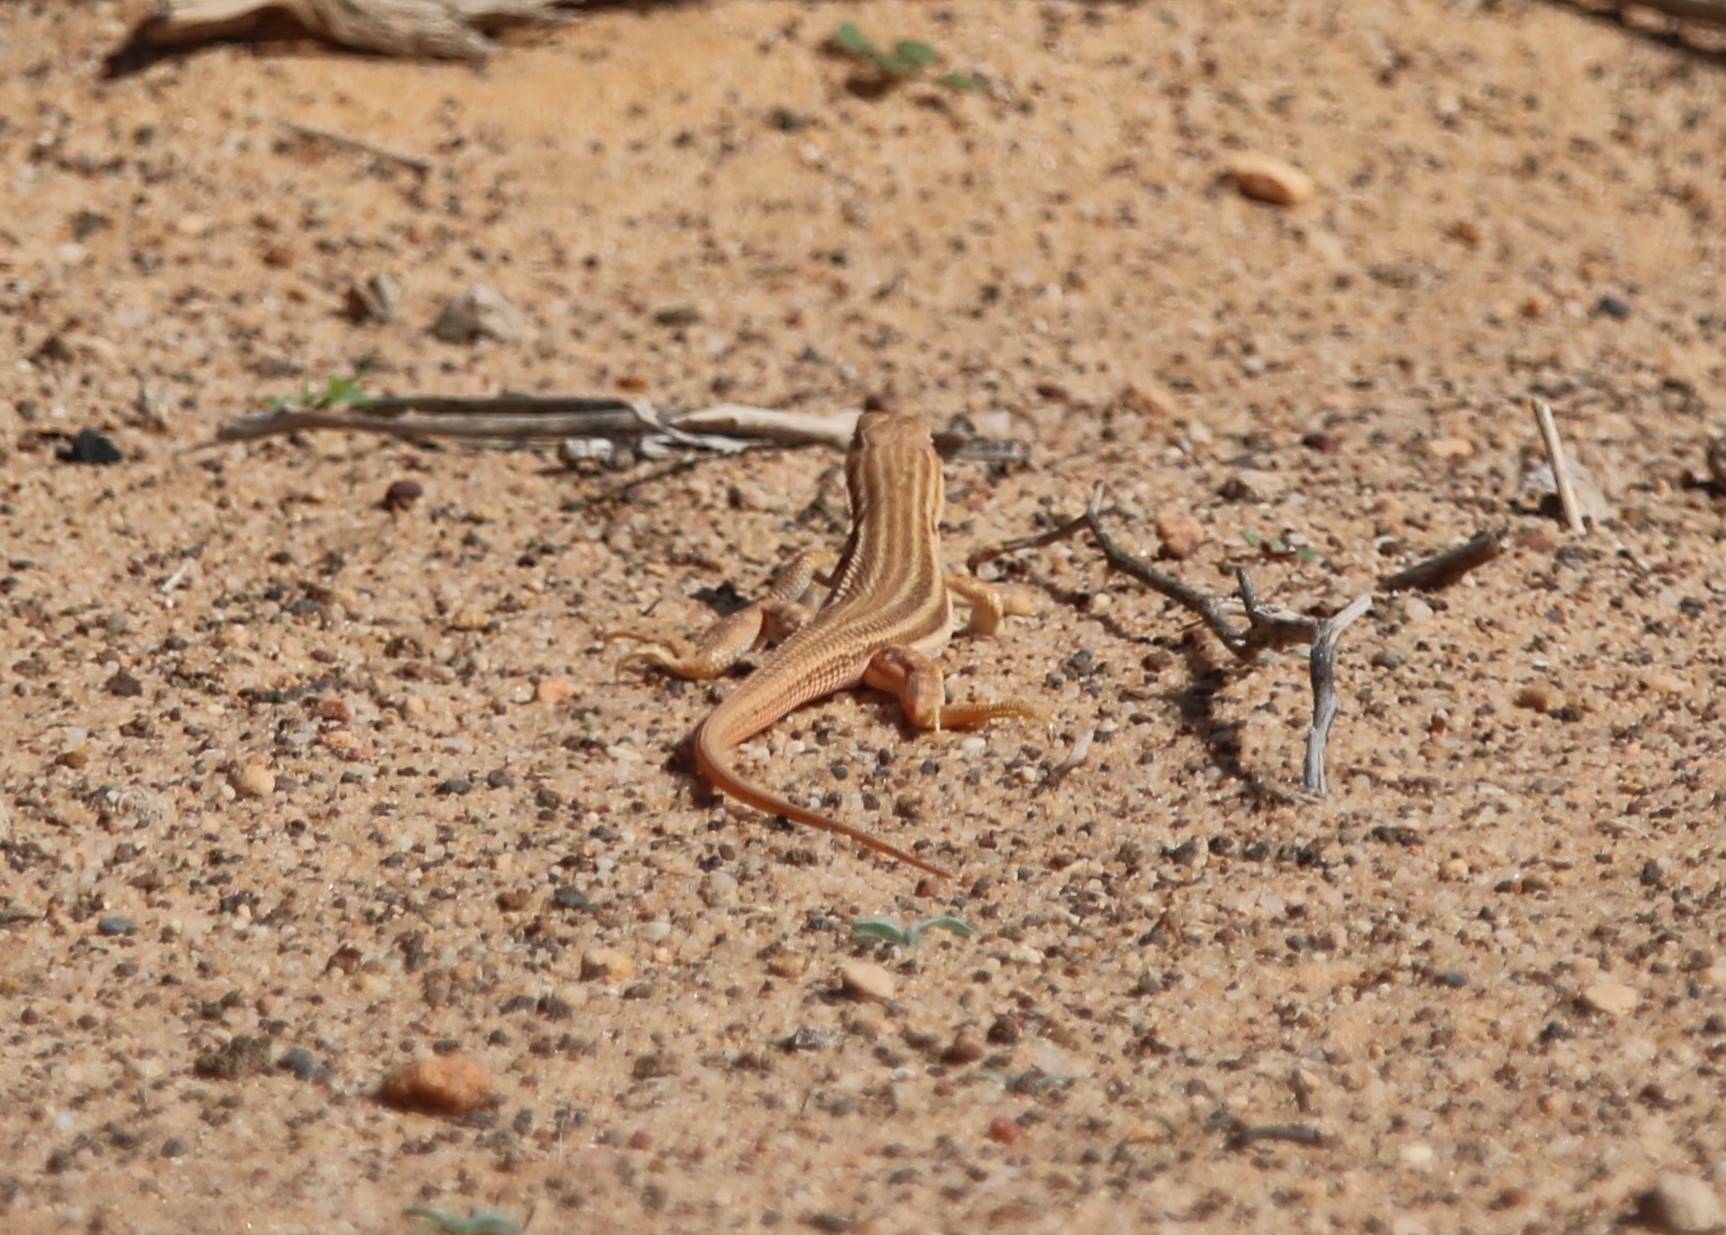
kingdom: Animalia
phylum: Chordata
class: Squamata
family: Lacertidae
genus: Acanthodactylus
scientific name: Acanthodactylus boskianus
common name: Bosc’s fringe-toed lizard
